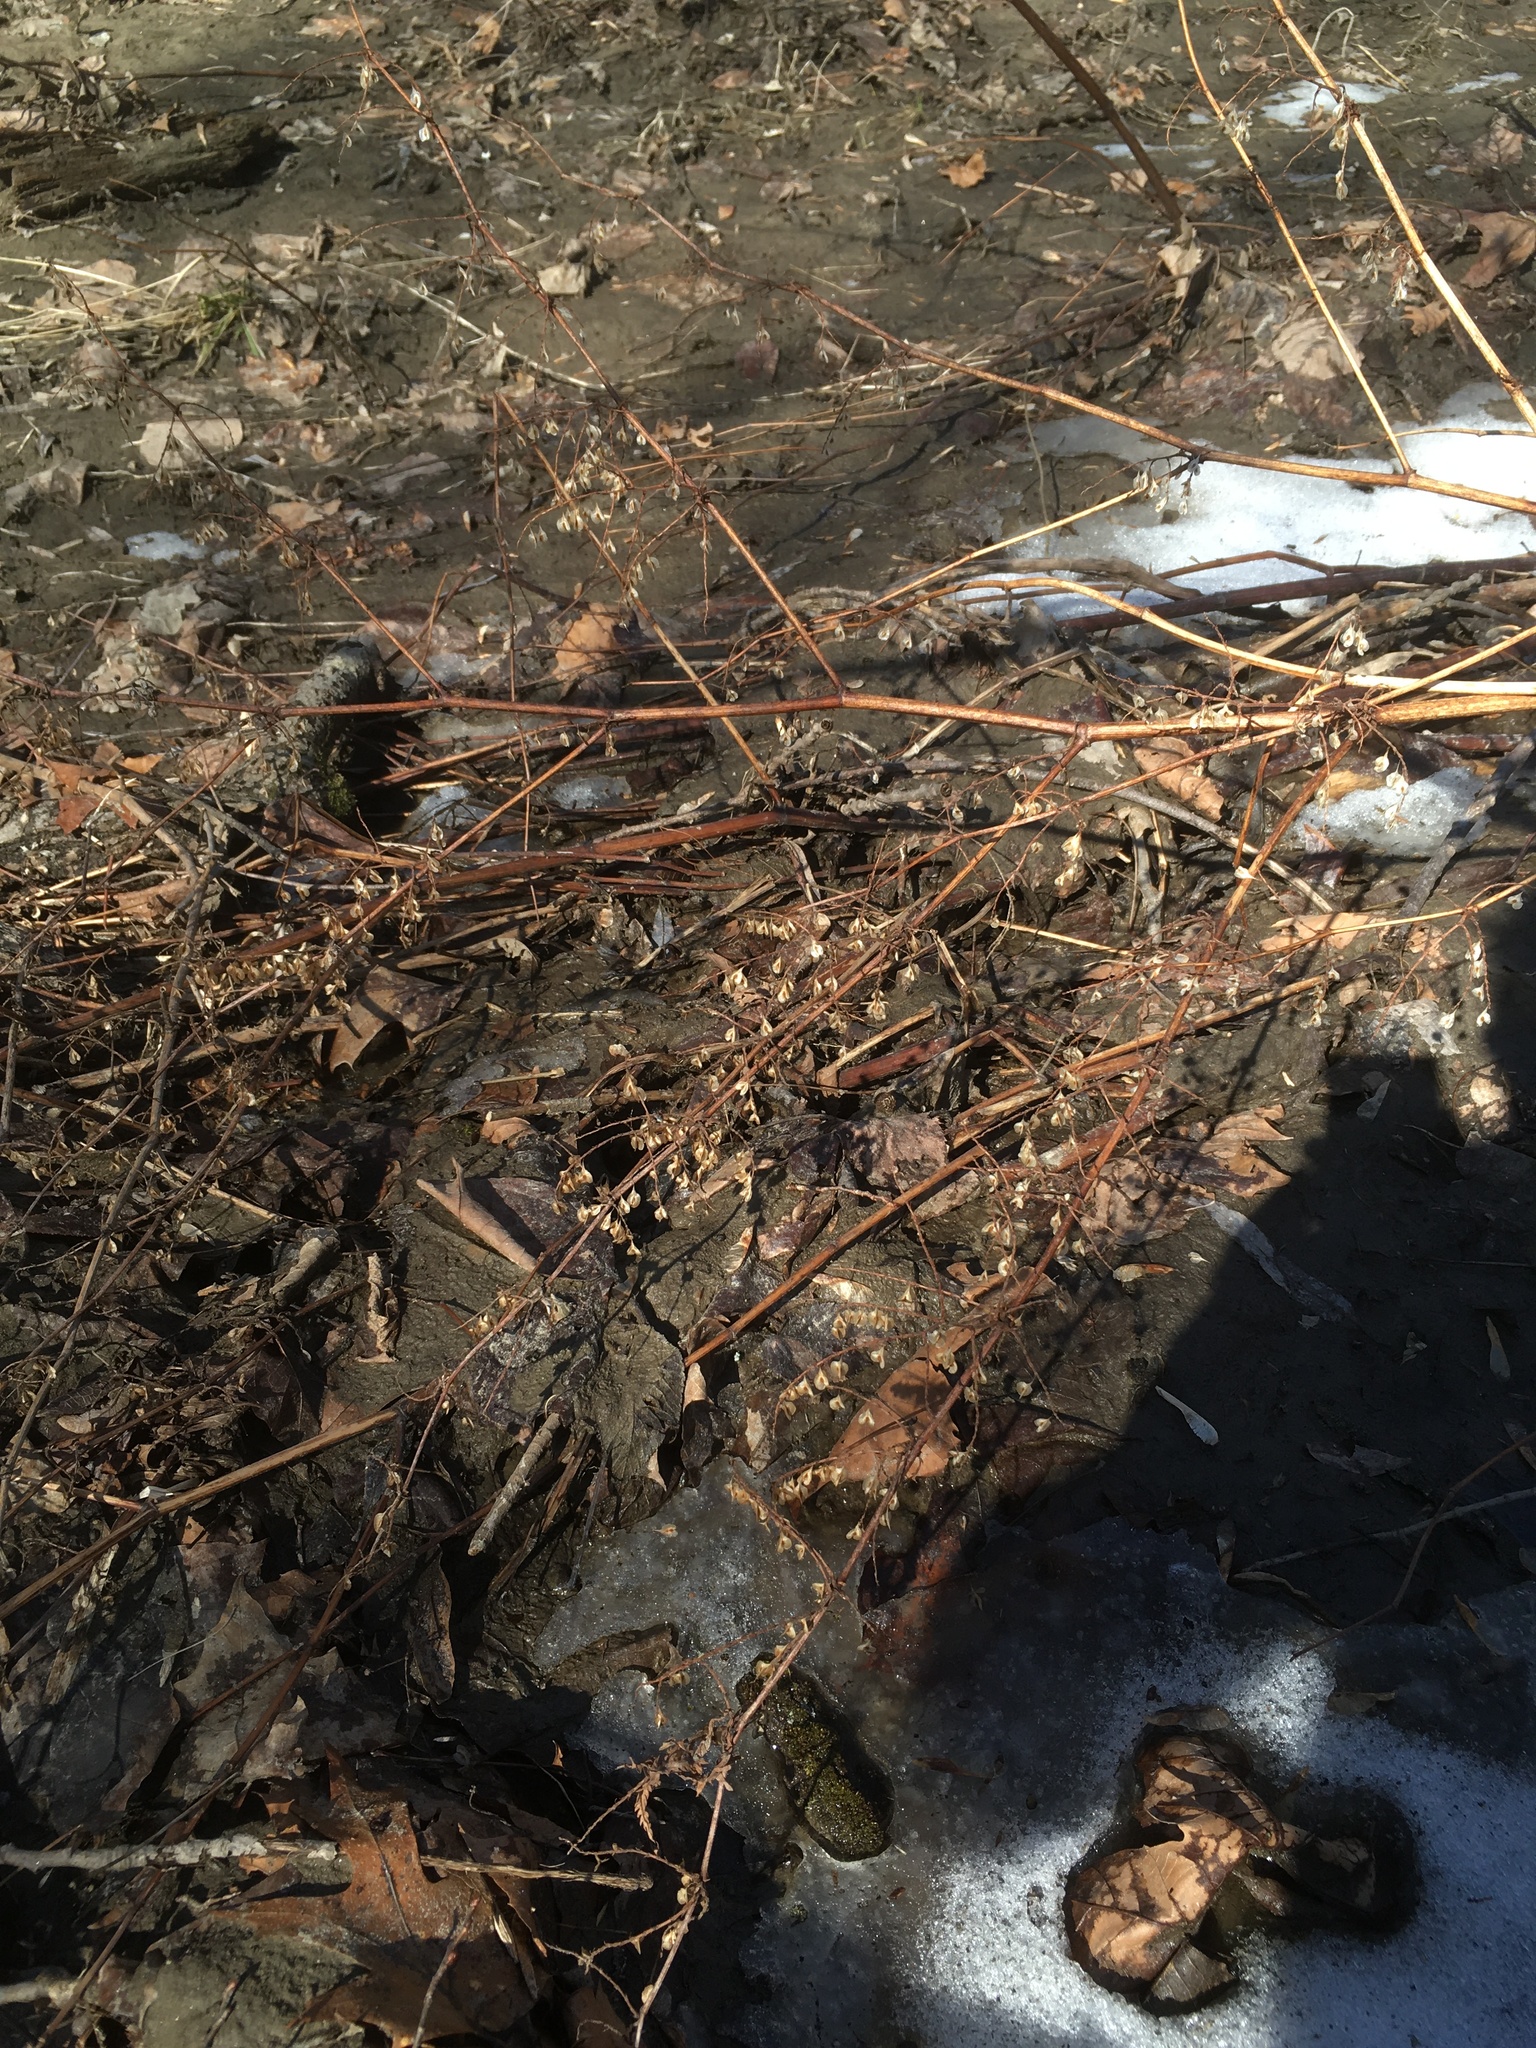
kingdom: Plantae
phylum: Tracheophyta
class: Magnoliopsida
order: Caryophyllales
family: Polygonaceae
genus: Reynoutria
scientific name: Reynoutria japonica
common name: Japanese knotweed
